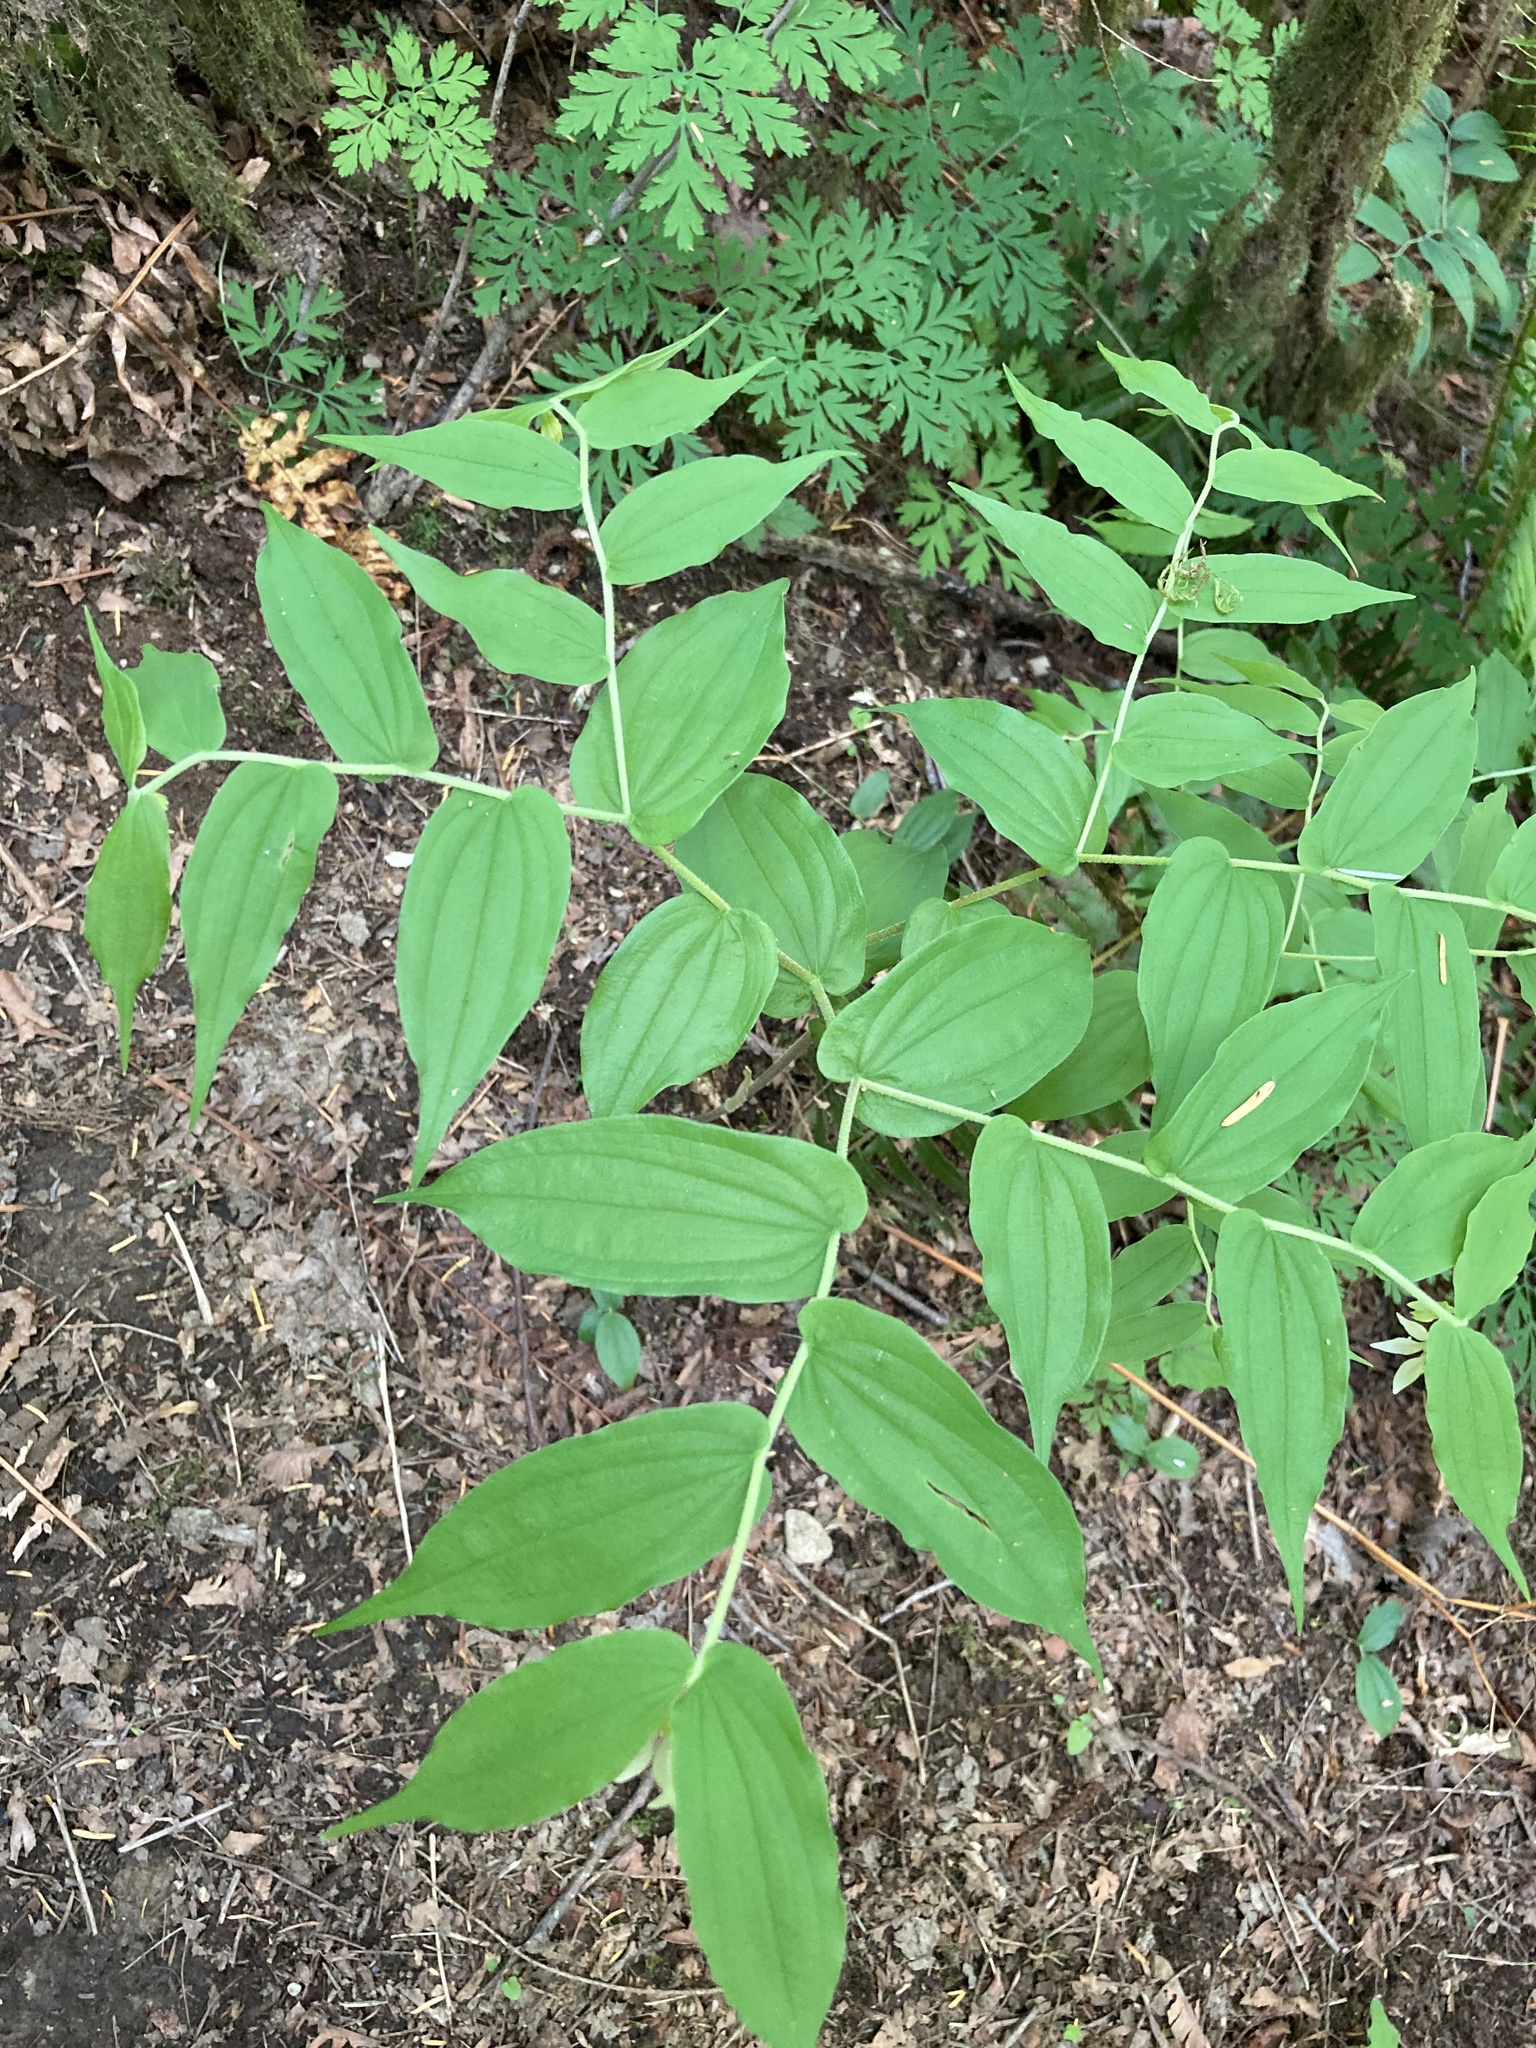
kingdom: Plantae
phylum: Tracheophyta
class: Liliopsida
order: Liliales
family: Liliaceae
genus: Prosartes
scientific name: Prosartes hookeri
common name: Fairy-bells
